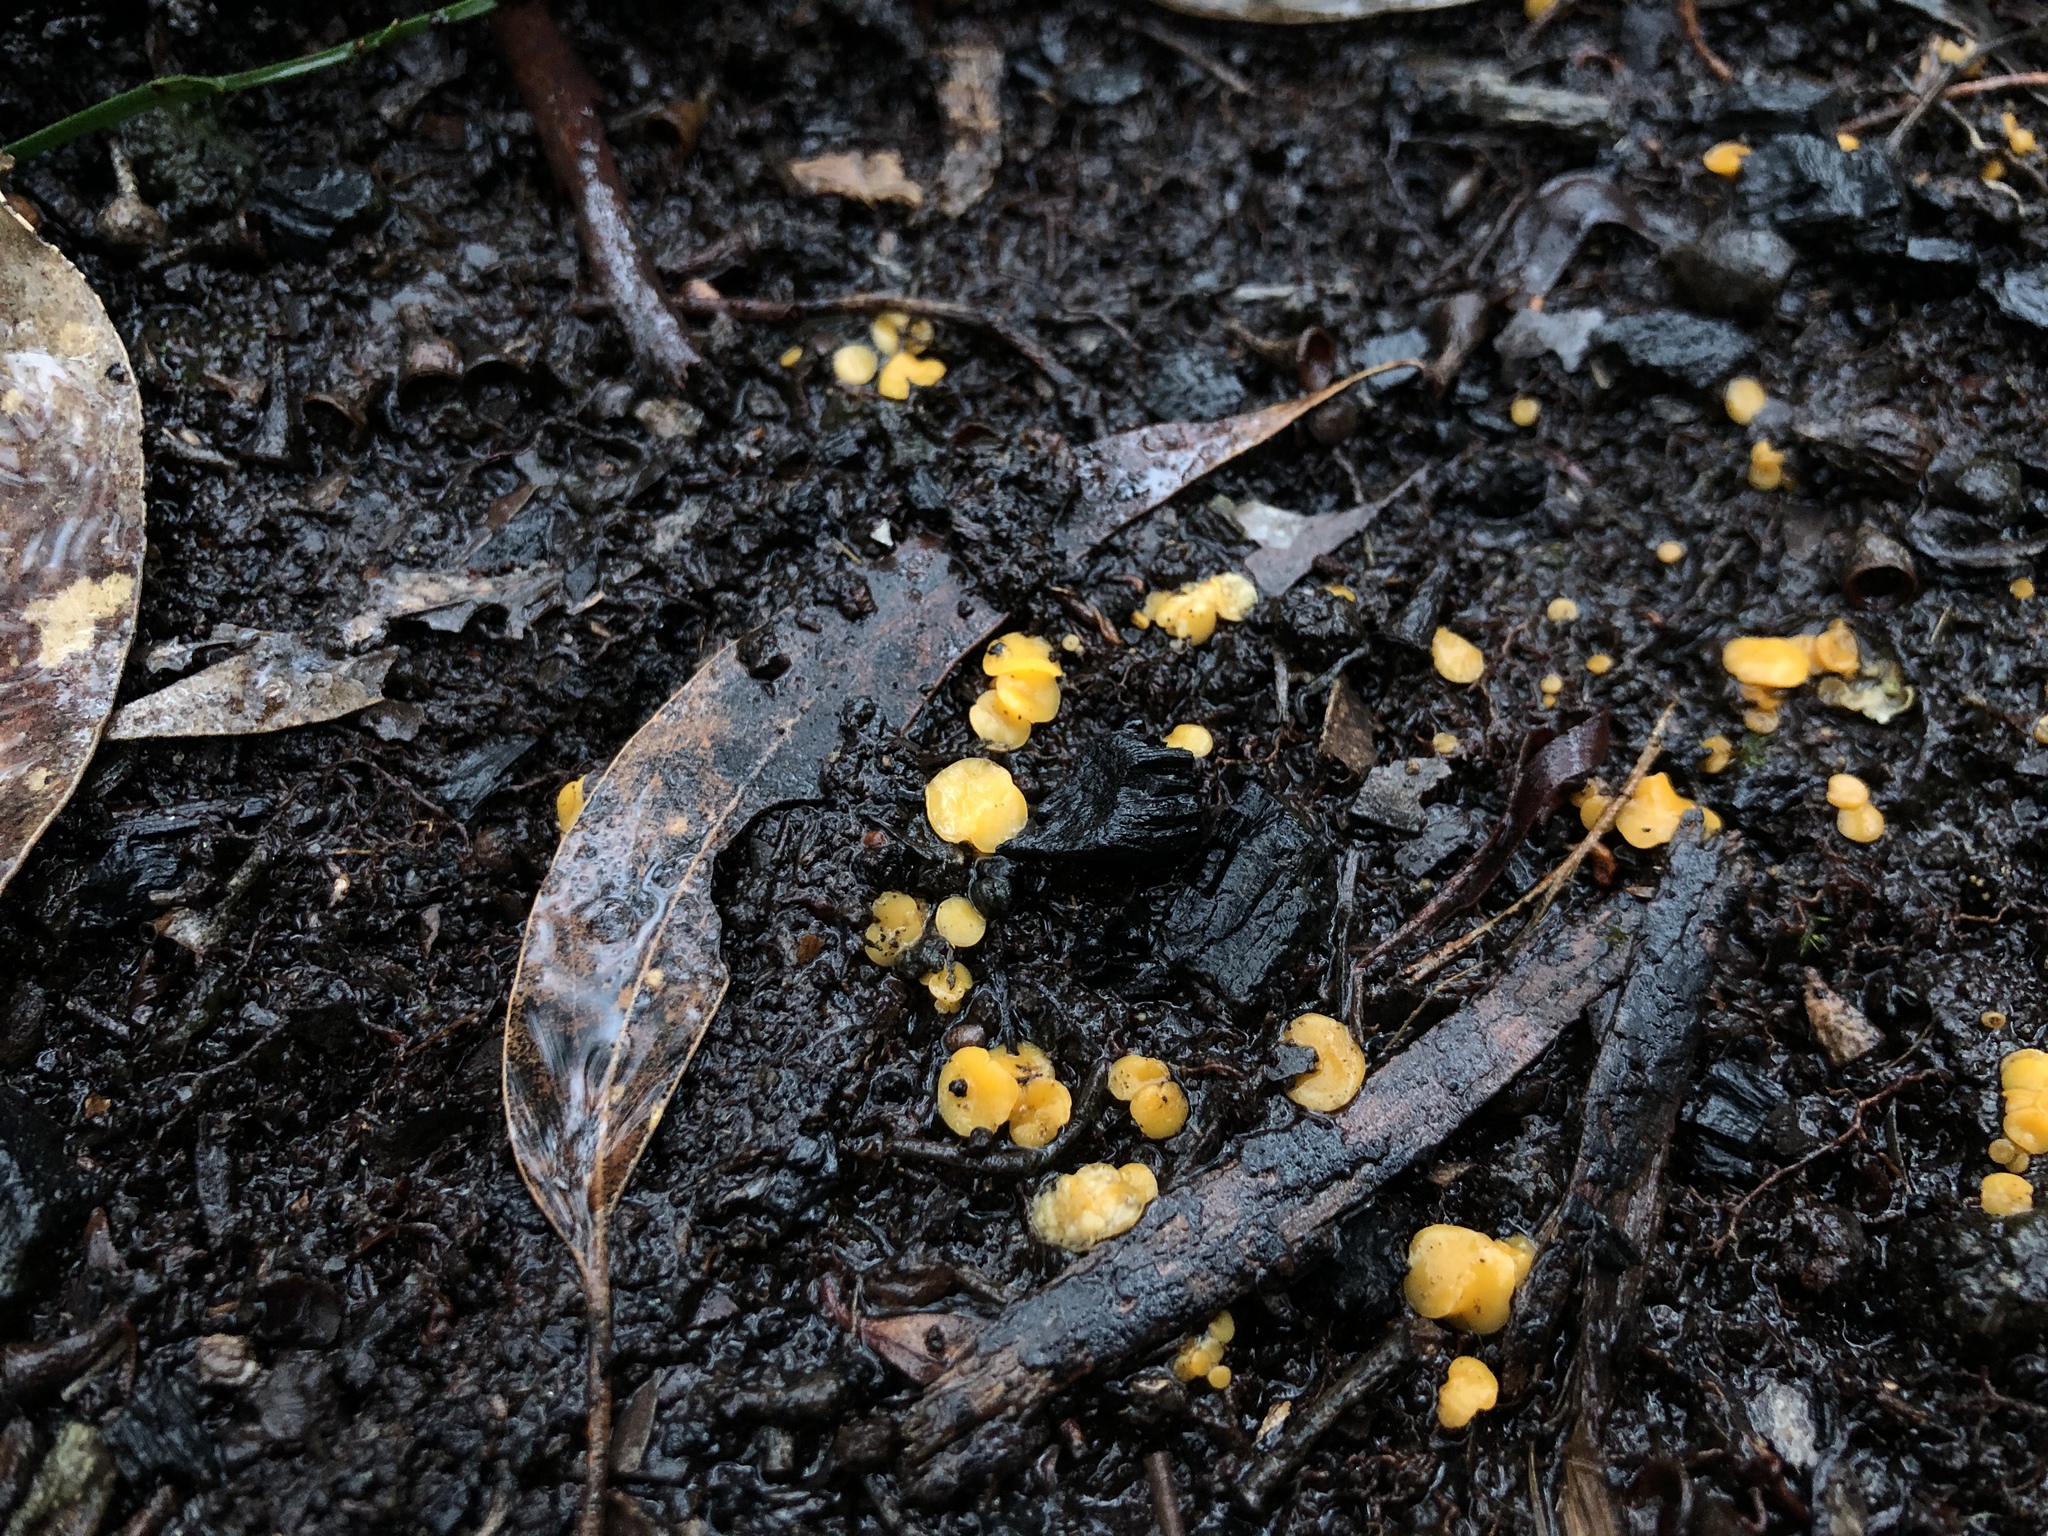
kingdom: Fungi
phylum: Ascomycota
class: Leotiomycetes
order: Helotiales
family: Helotiaceae
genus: Phaeohelotium
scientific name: Phaeohelotium baileyanum
